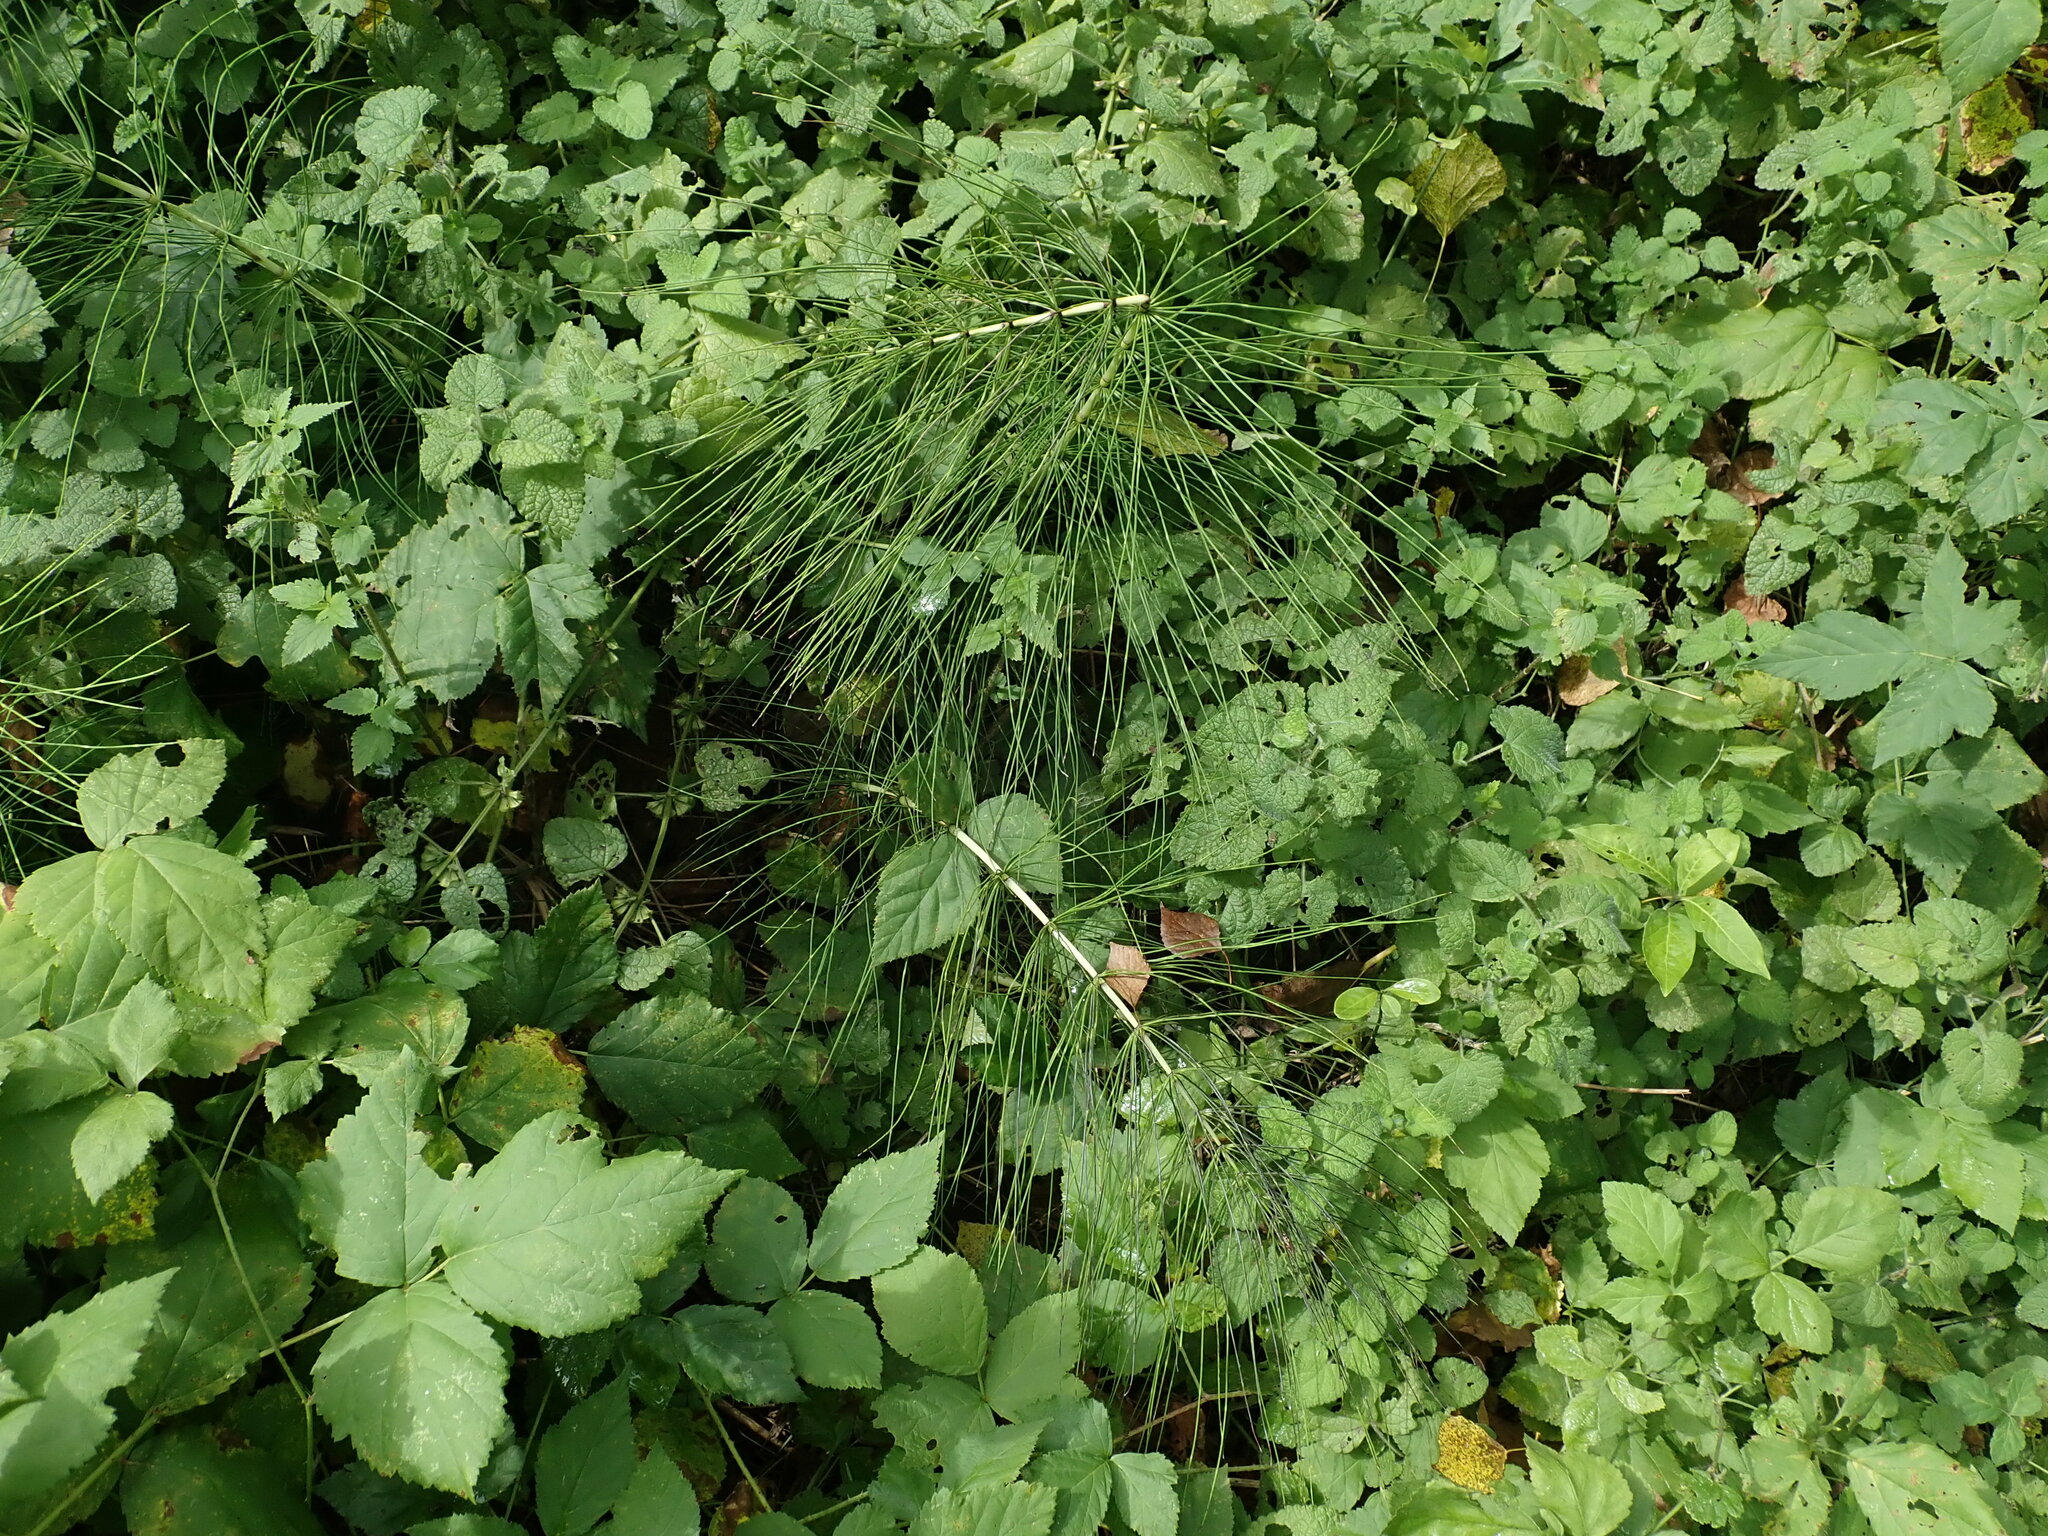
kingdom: Plantae
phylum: Tracheophyta
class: Polypodiopsida
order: Equisetales
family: Equisetaceae
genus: Equisetum
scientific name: Equisetum telmateia
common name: Great horsetail
